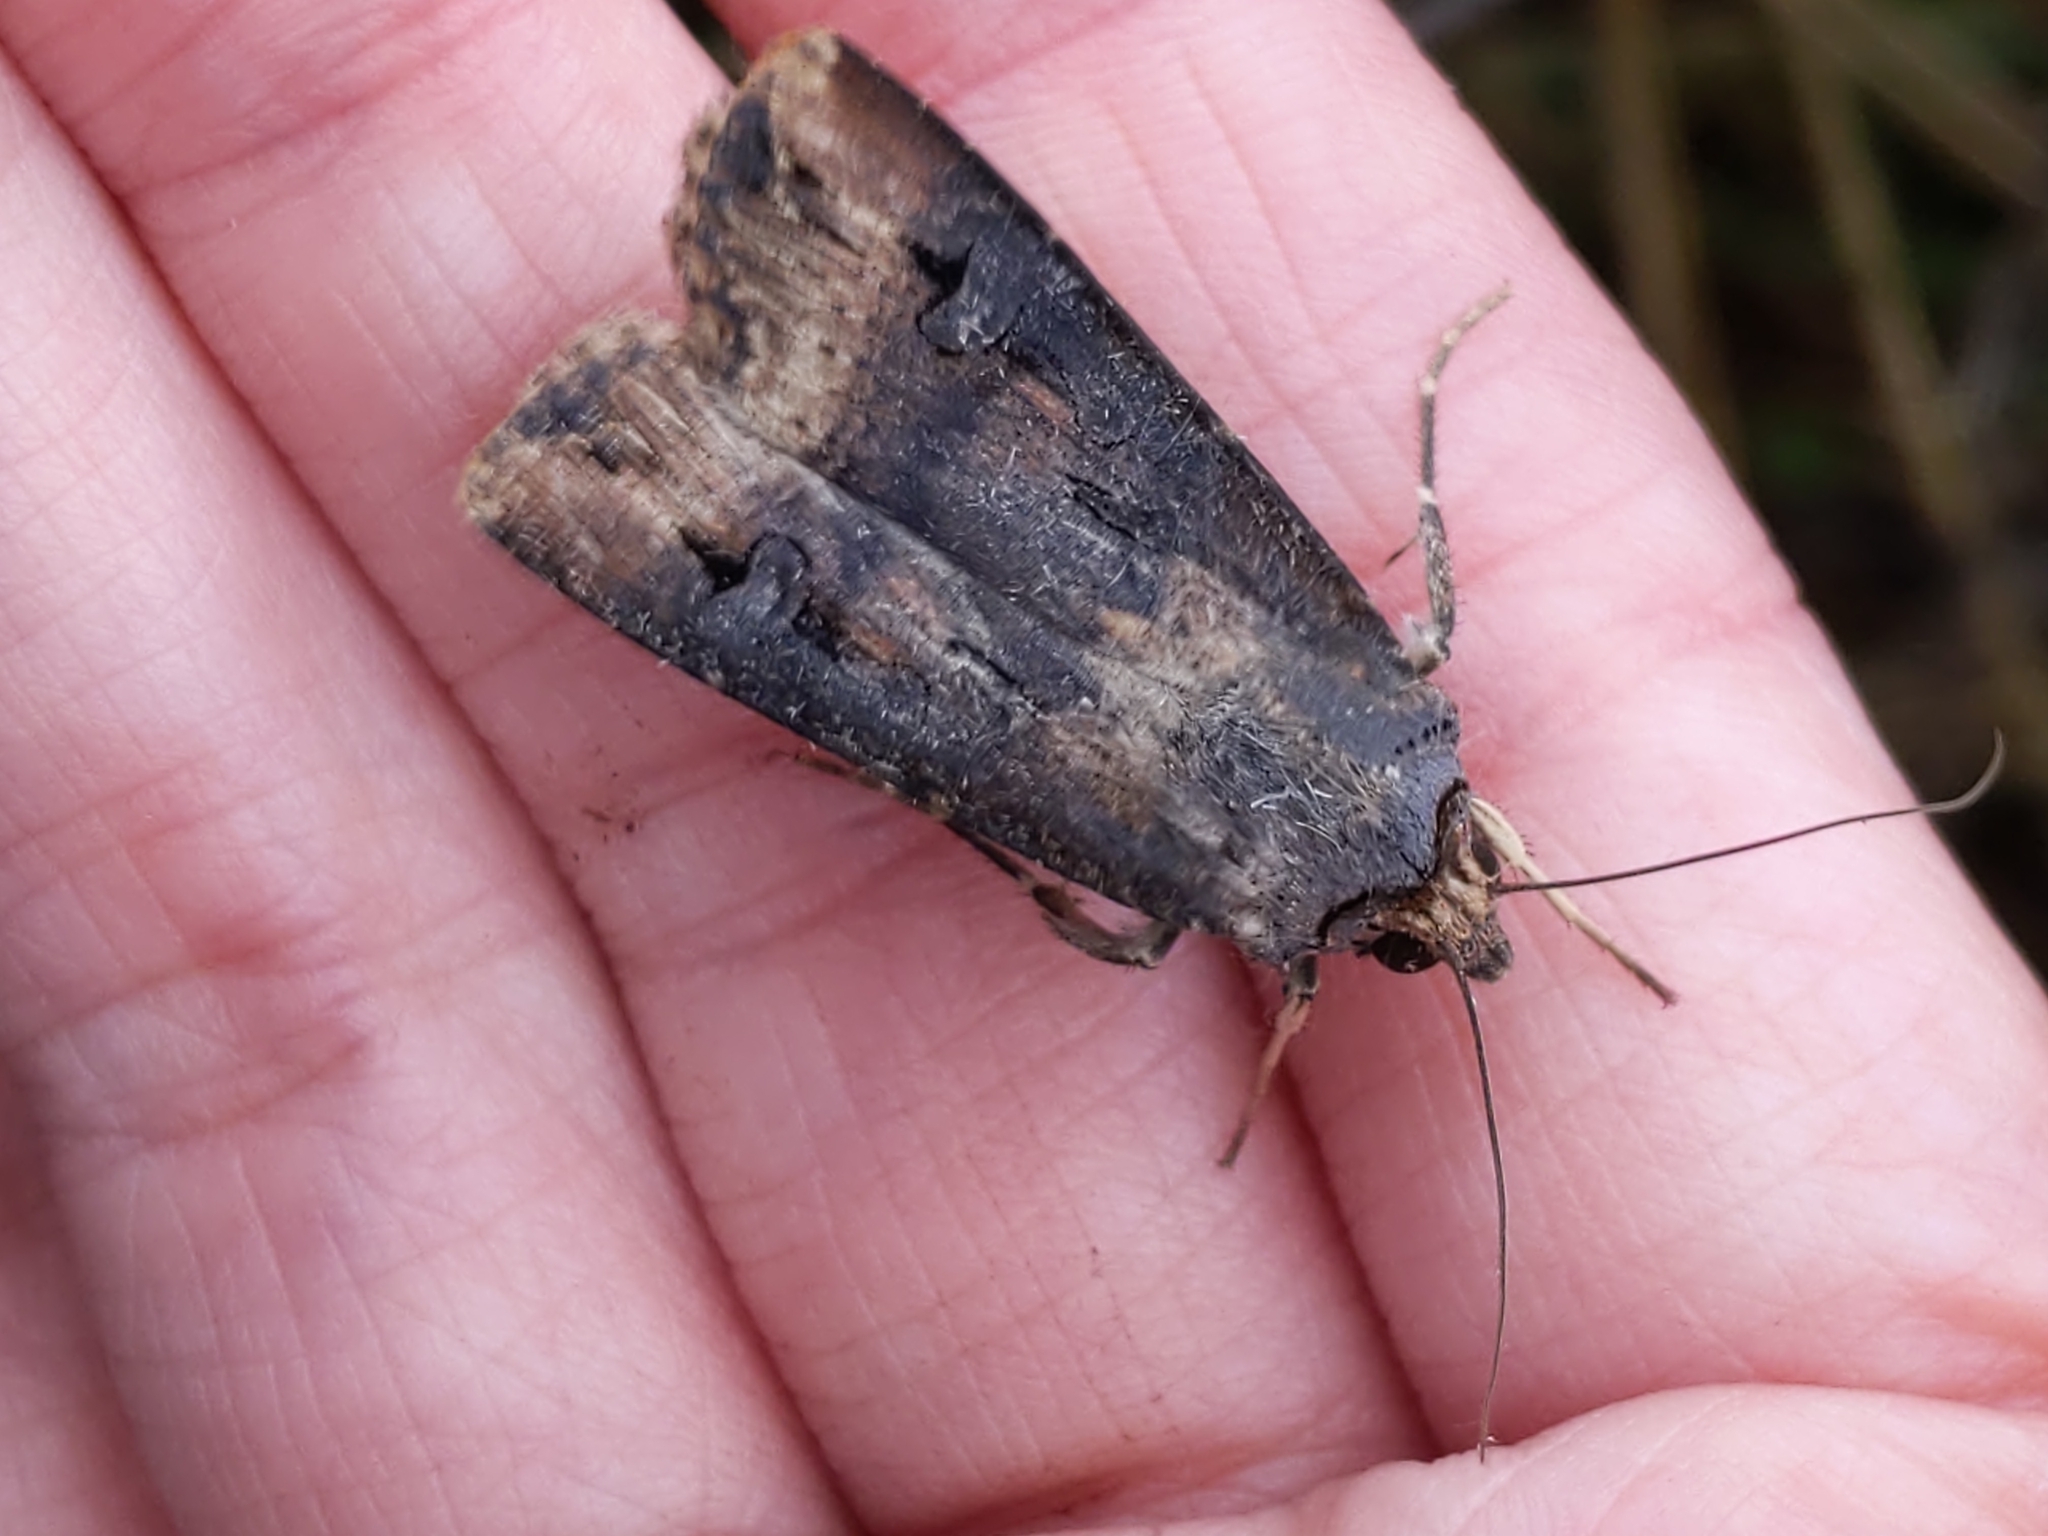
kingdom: Animalia
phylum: Arthropoda
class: Insecta
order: Lepidoptera
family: Noctuidae
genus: Agrotis
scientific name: Agrotis ipsilon
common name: Dark sword-grass
